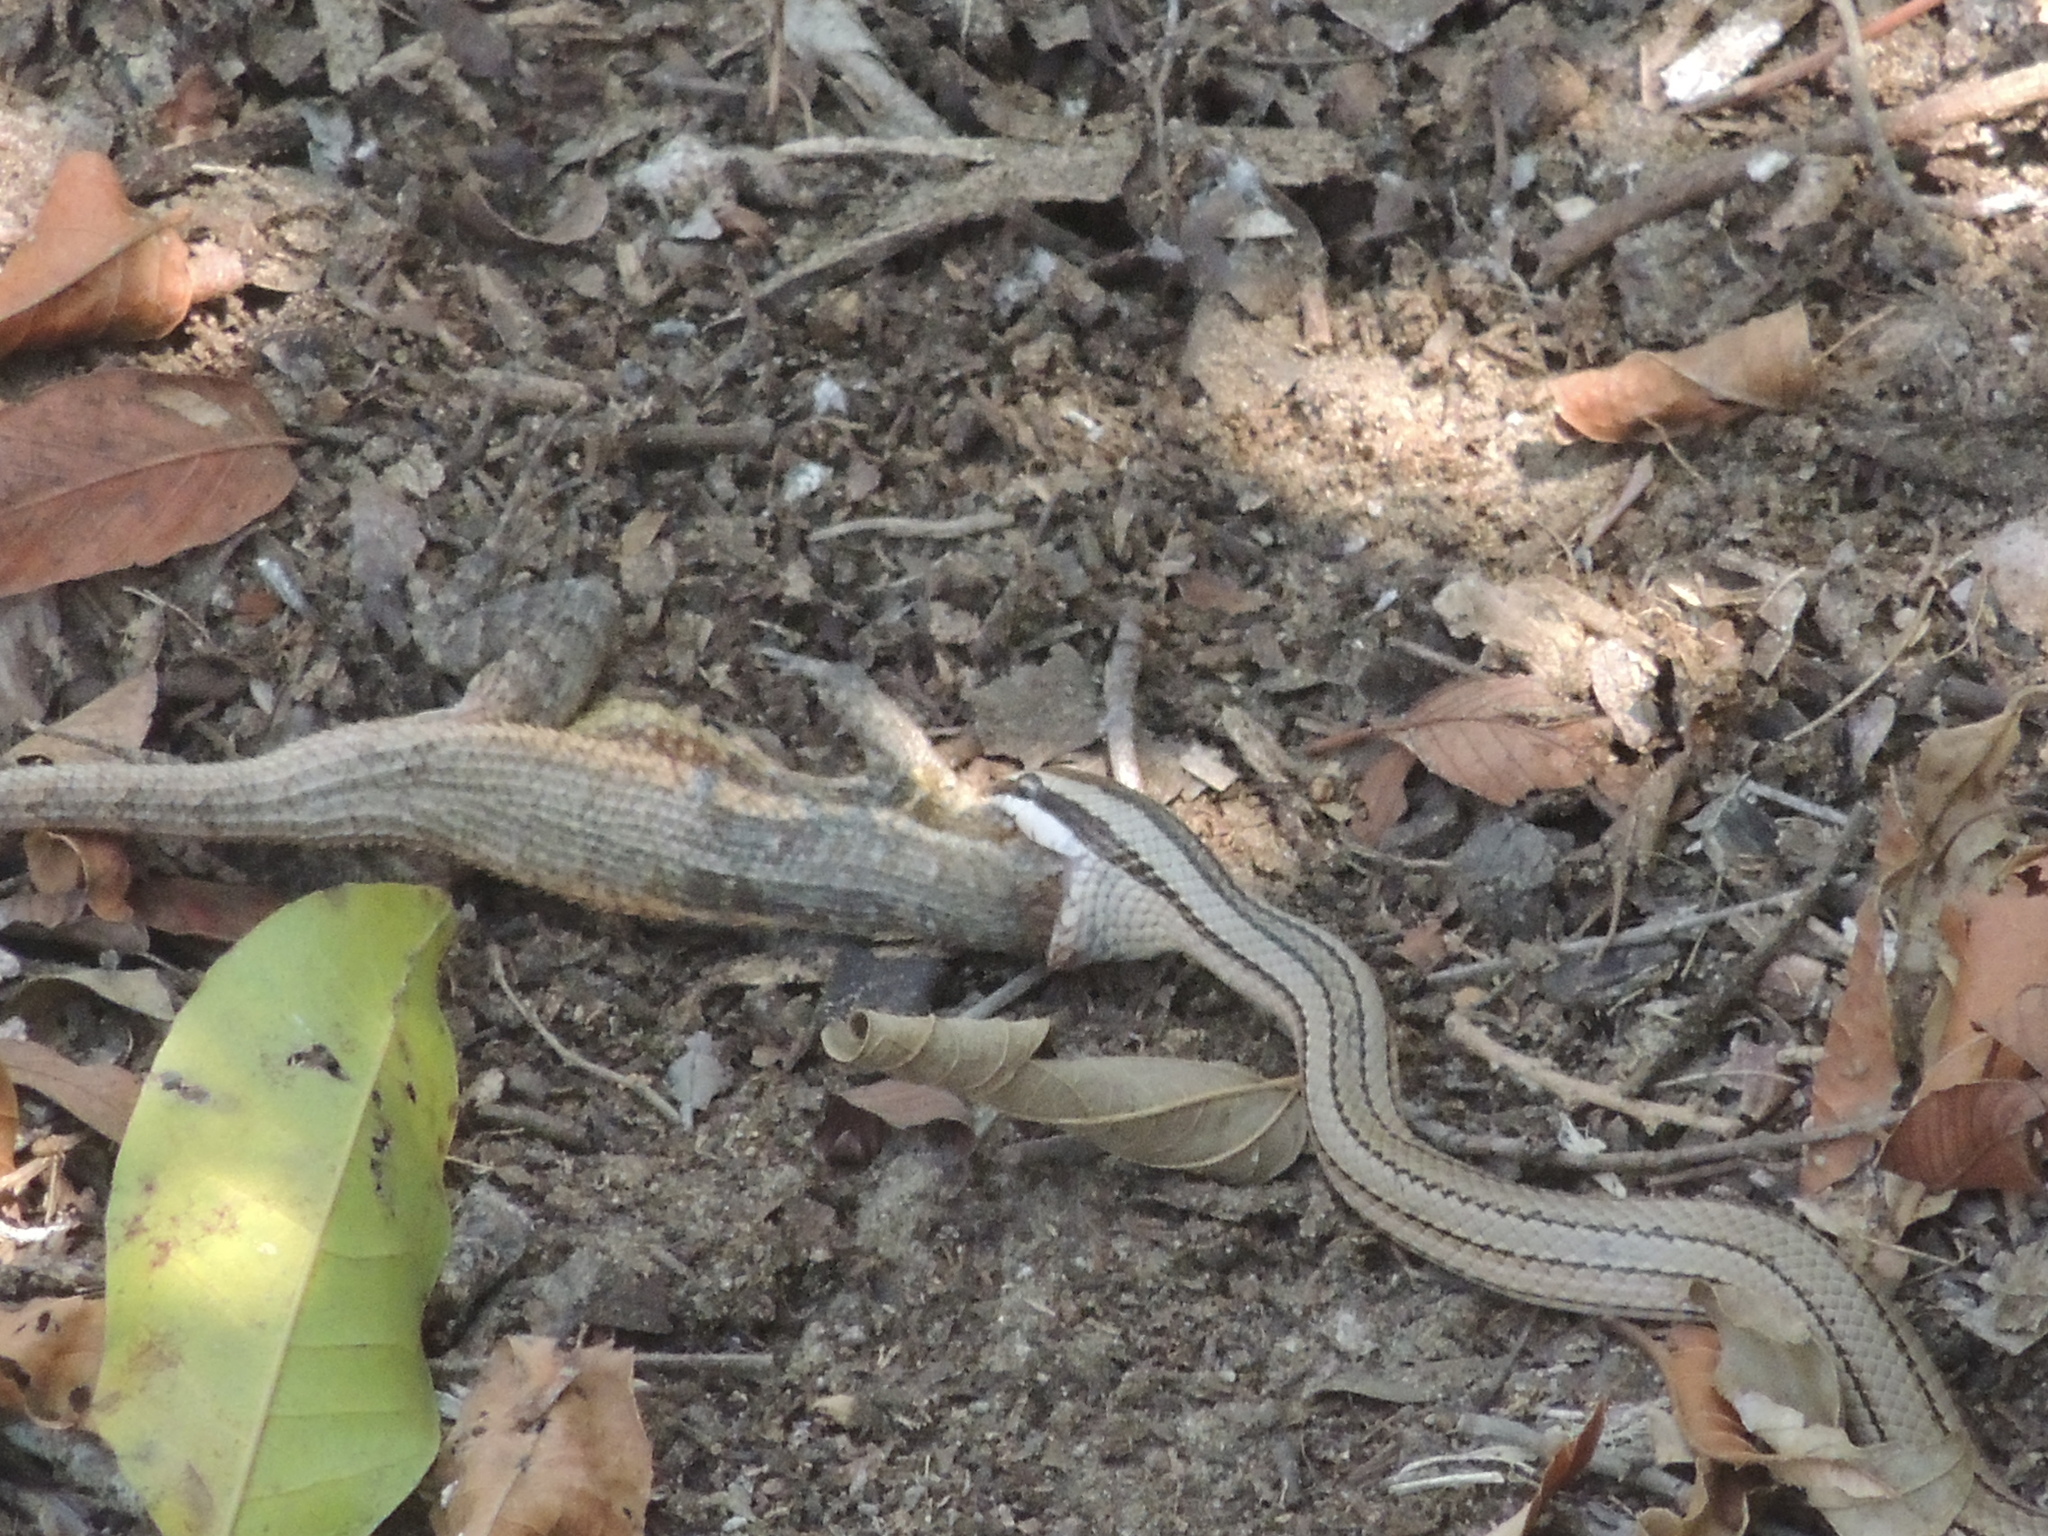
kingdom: Animalia
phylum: Chordata
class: Squamata
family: Colubridae
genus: Conophis
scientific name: Conophis lineatus
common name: Road guarder
